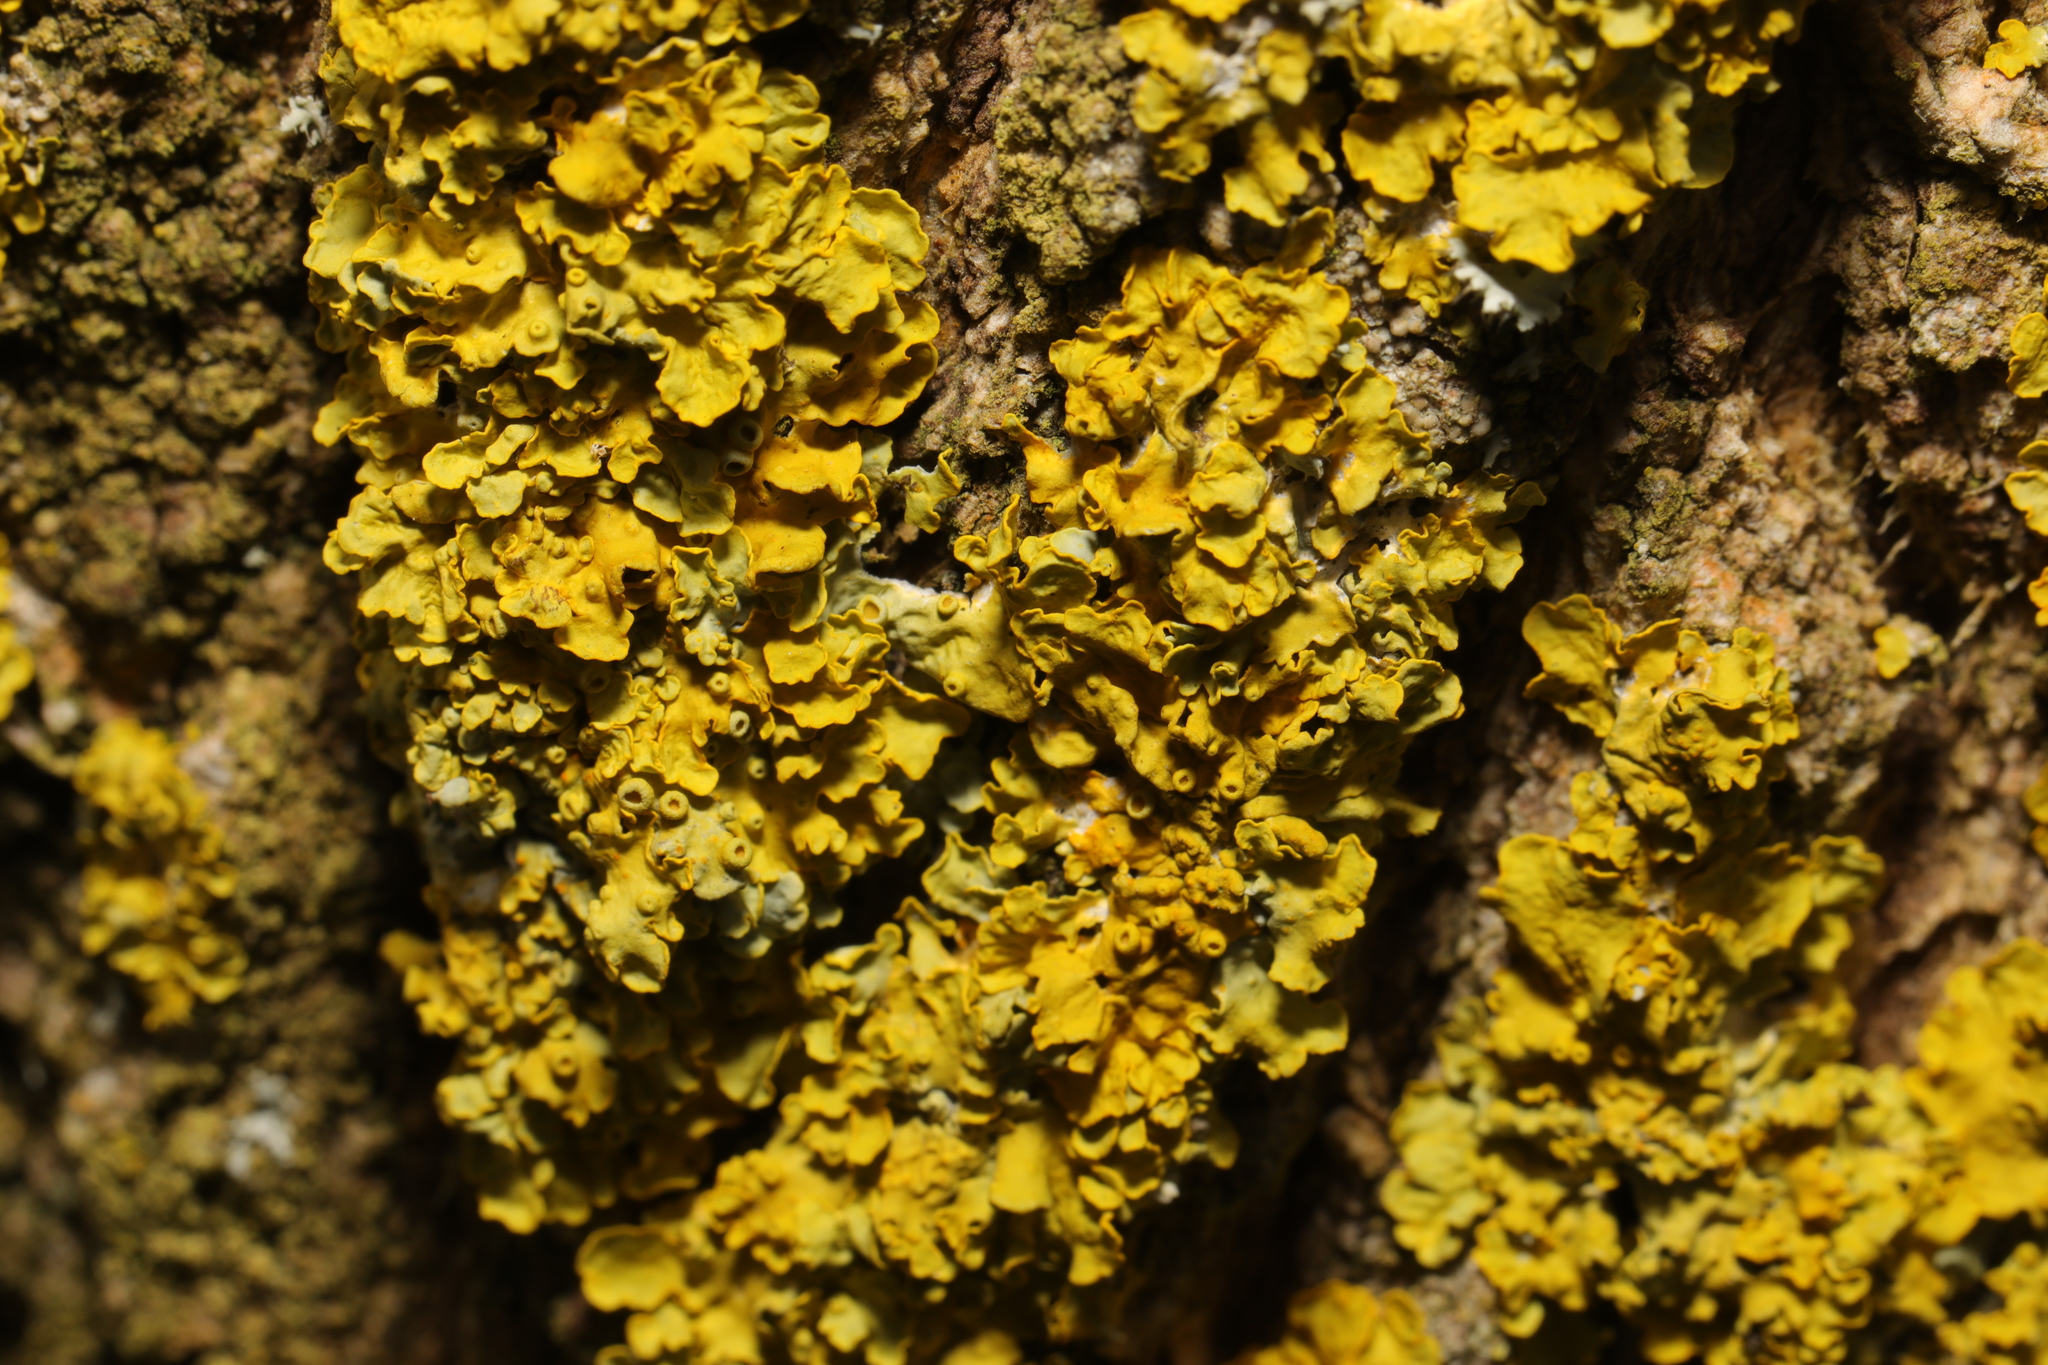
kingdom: Fungi
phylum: Ascomycota
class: Lecanoromycetes
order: Teloschistales
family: Teloschistaceae
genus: Xanthoria
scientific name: Xanthoria parietina
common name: Common orange lichen
